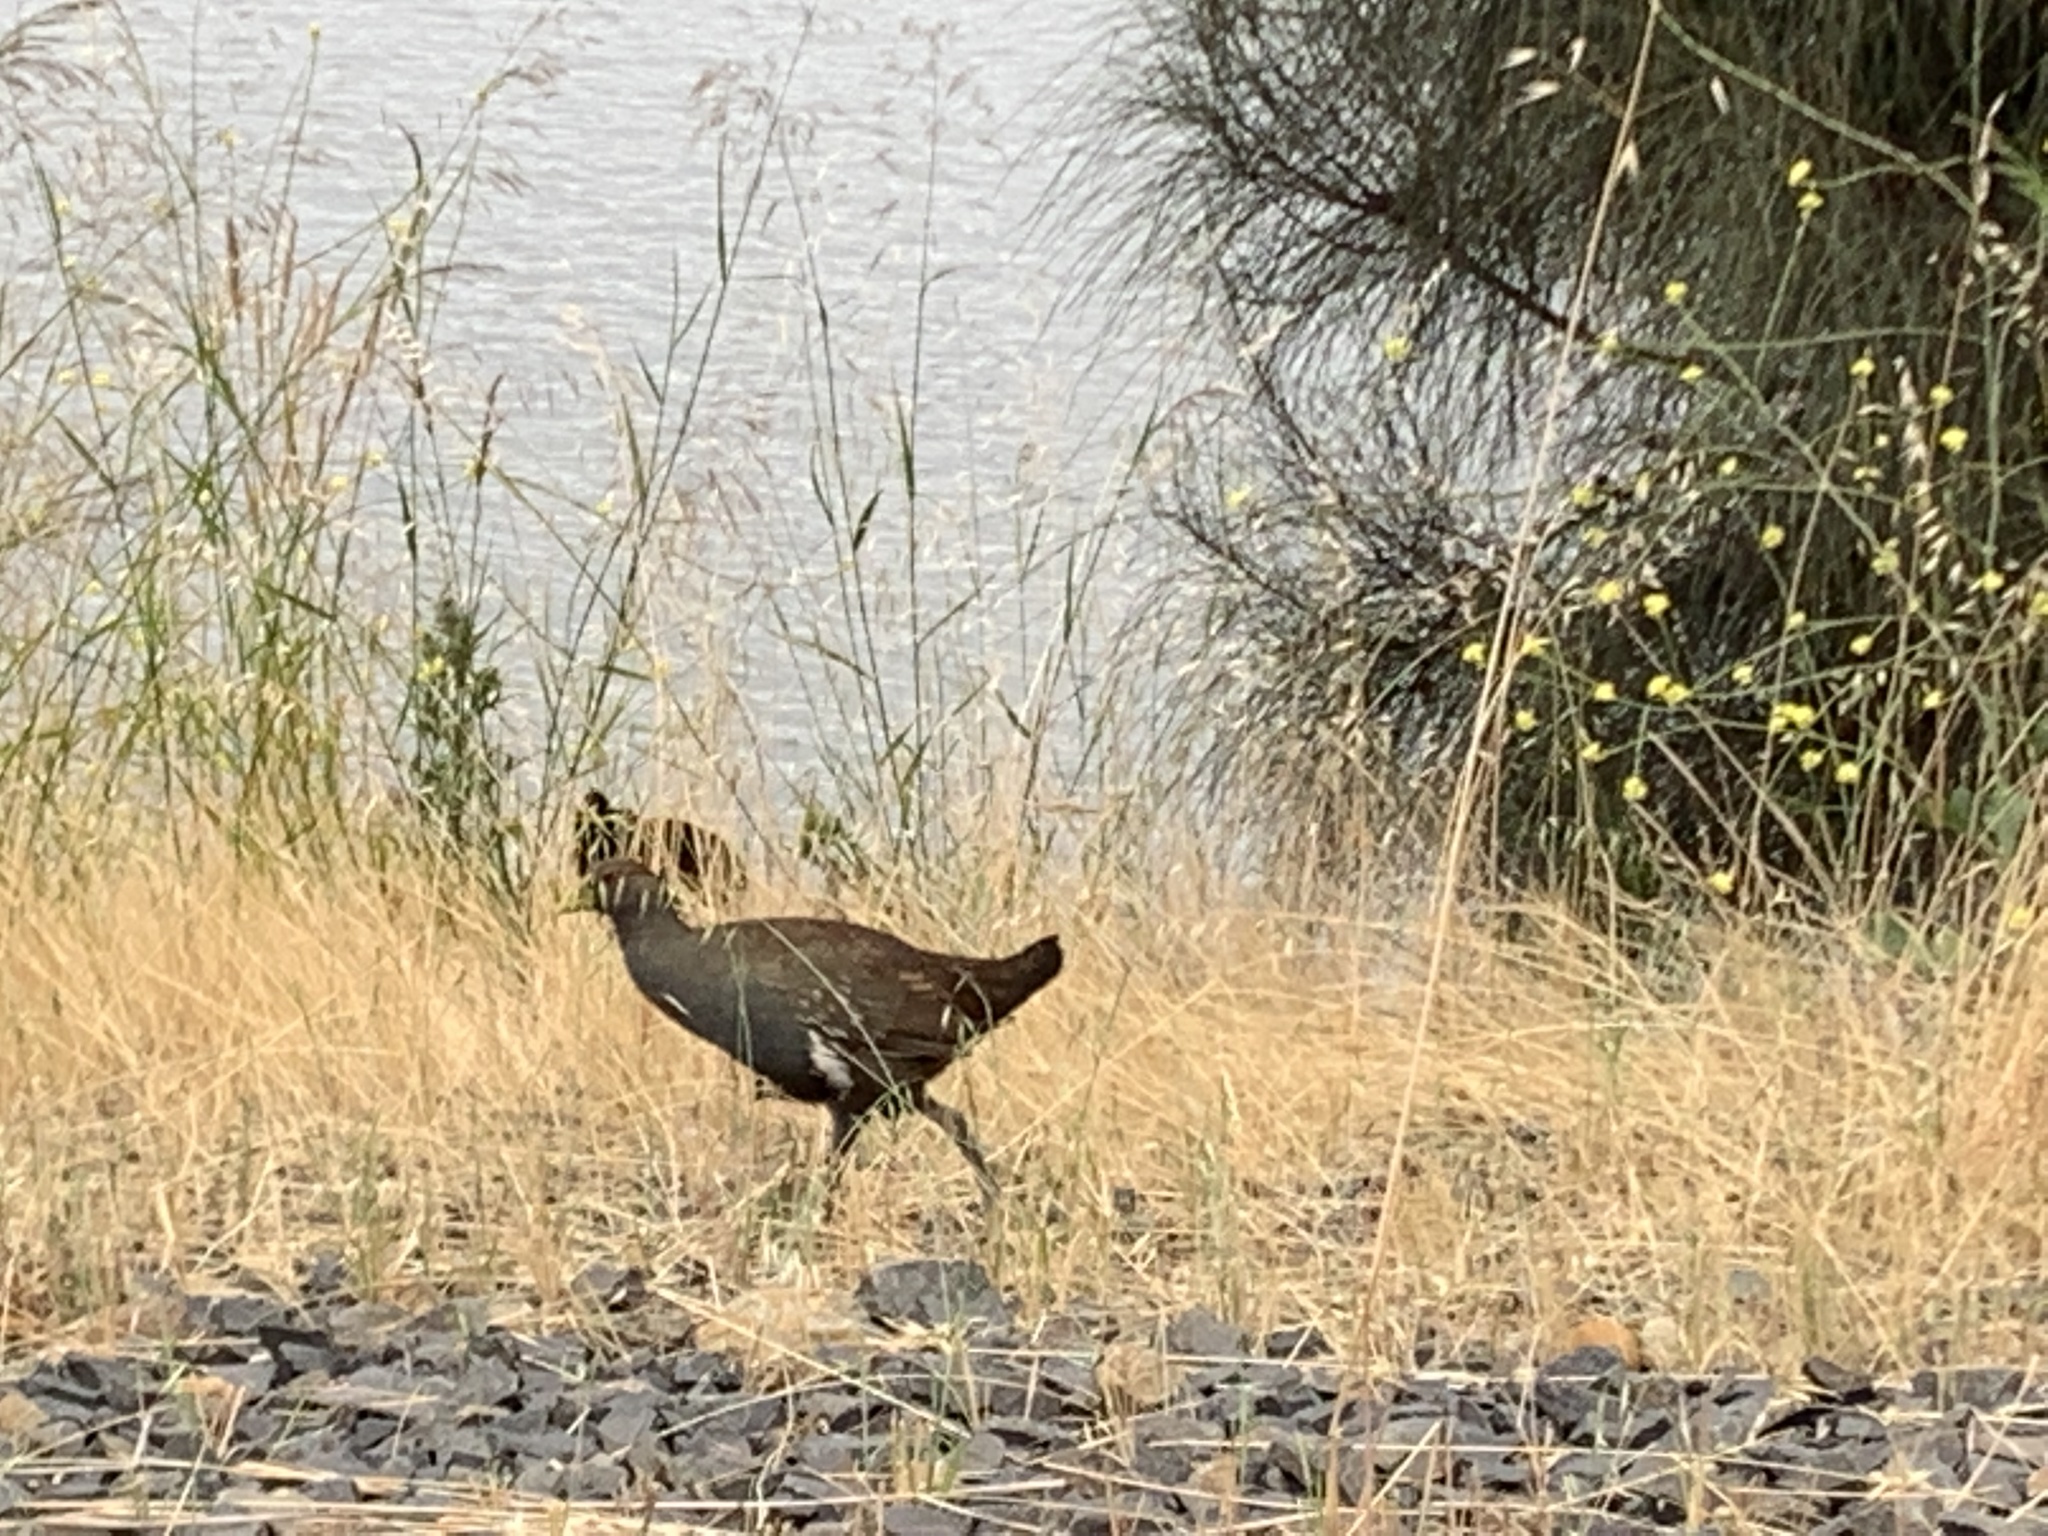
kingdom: Animalia
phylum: Chordata
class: Aves
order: Gruiformes
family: Rallidae
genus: Gallinula
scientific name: Gallinula mortierii
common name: Tasmanian nativehen
